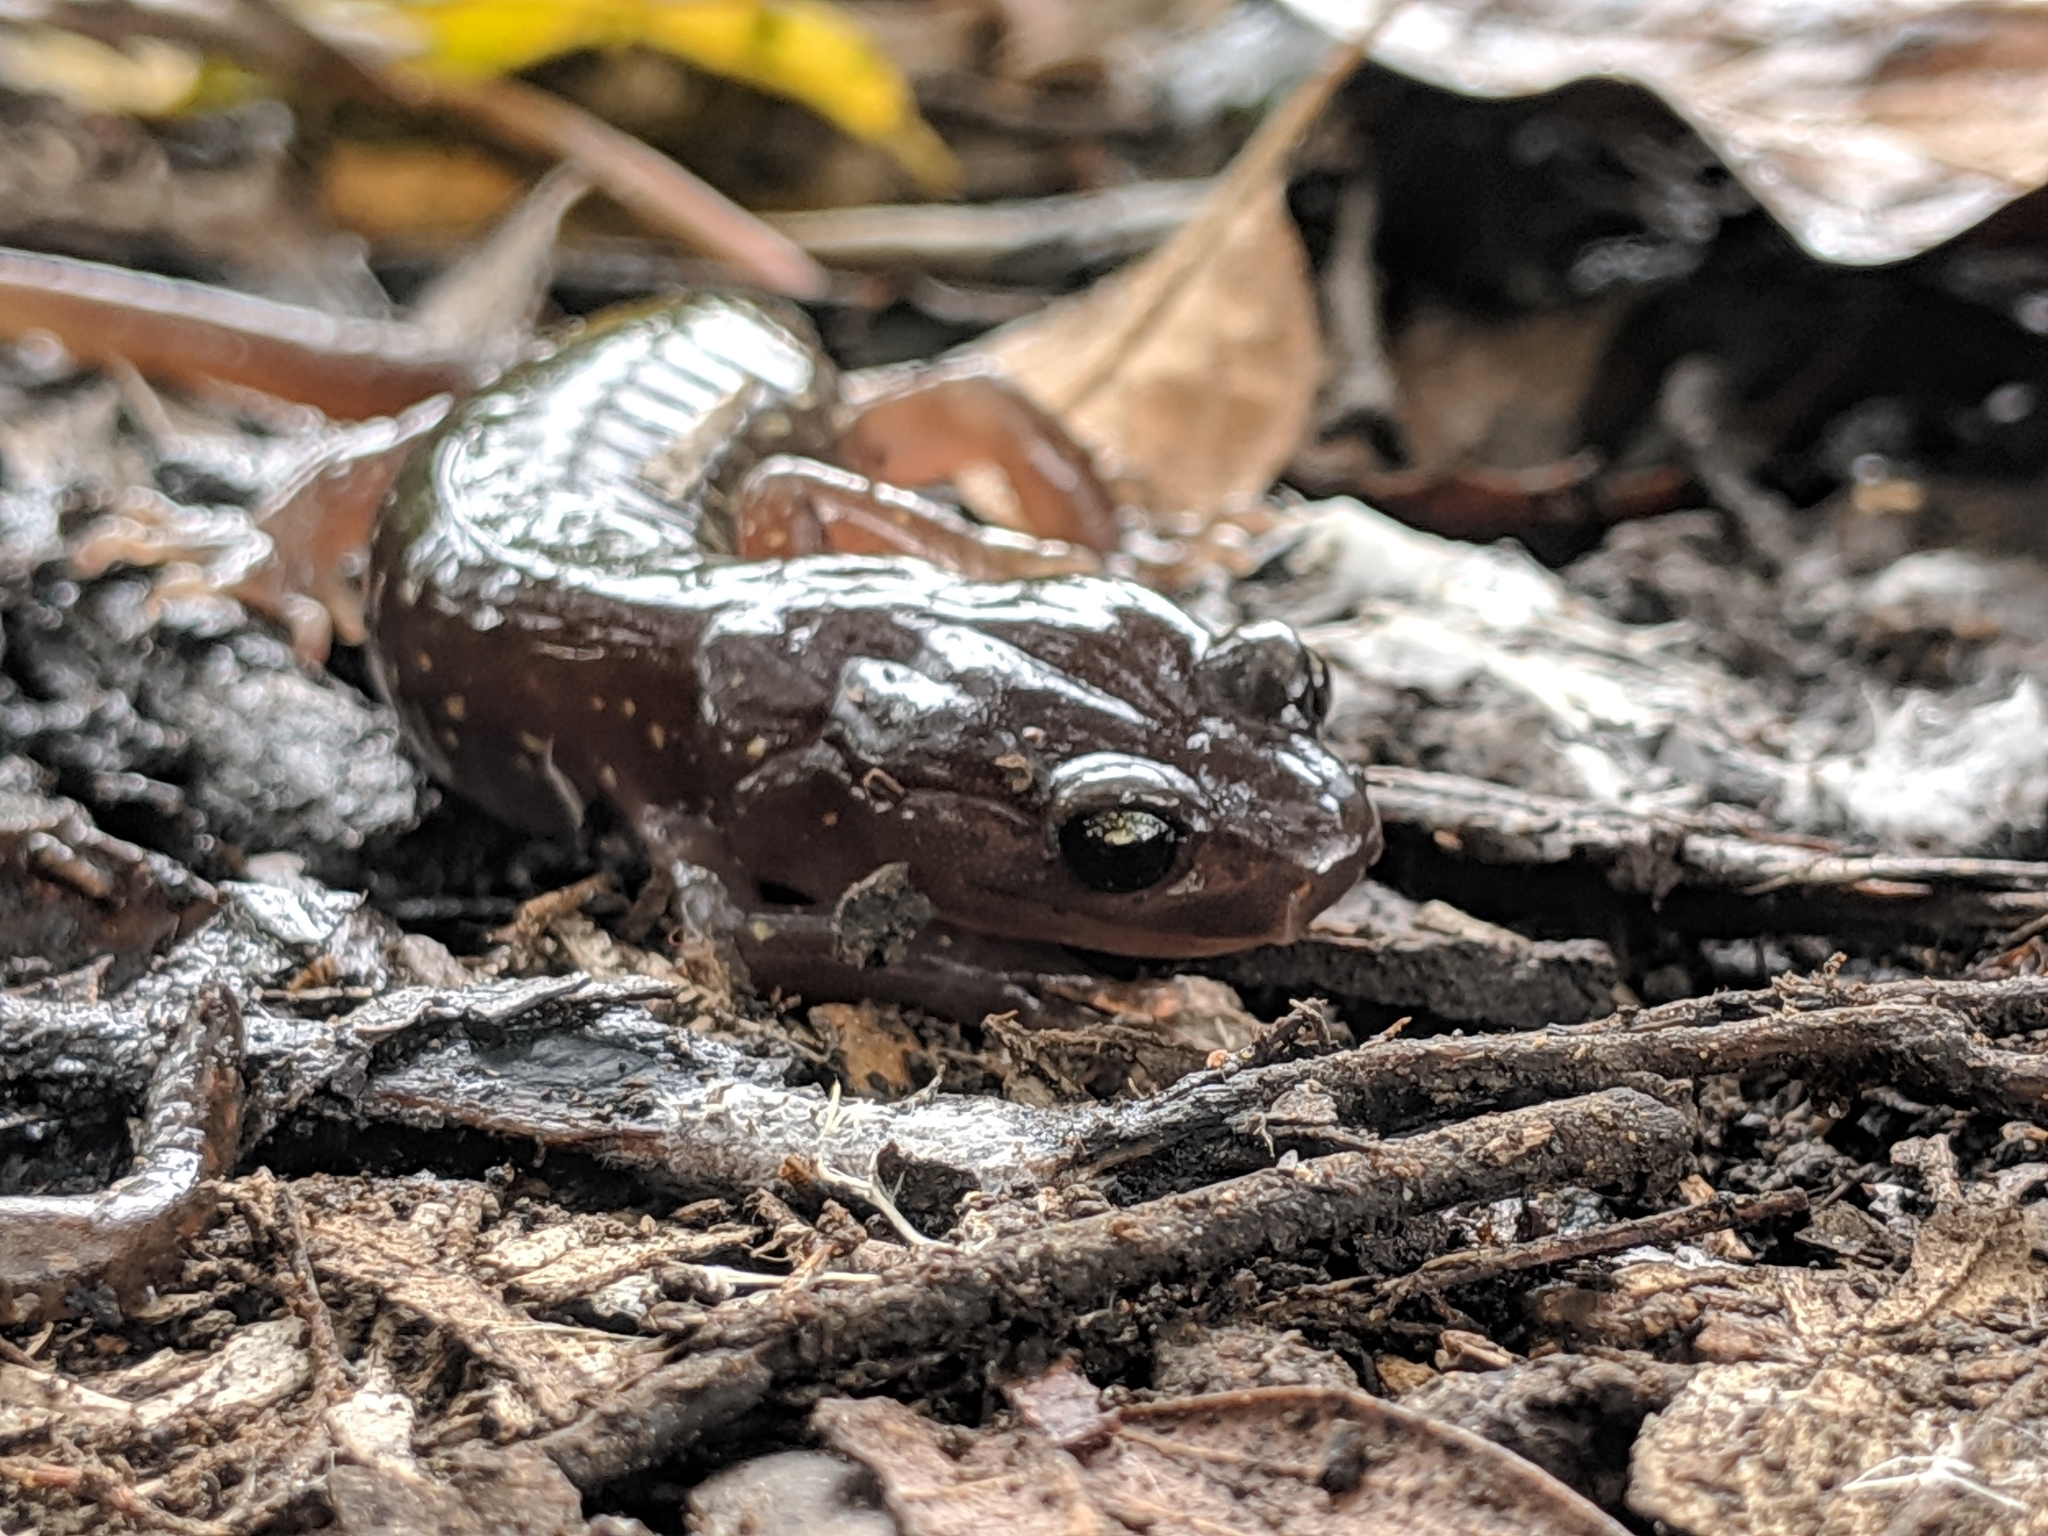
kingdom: Animalia
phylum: Chordata
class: Amphibia
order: Caudata
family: Plethodontidae
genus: Aneides
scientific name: Aneides lugubris
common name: Arboreal salamander
